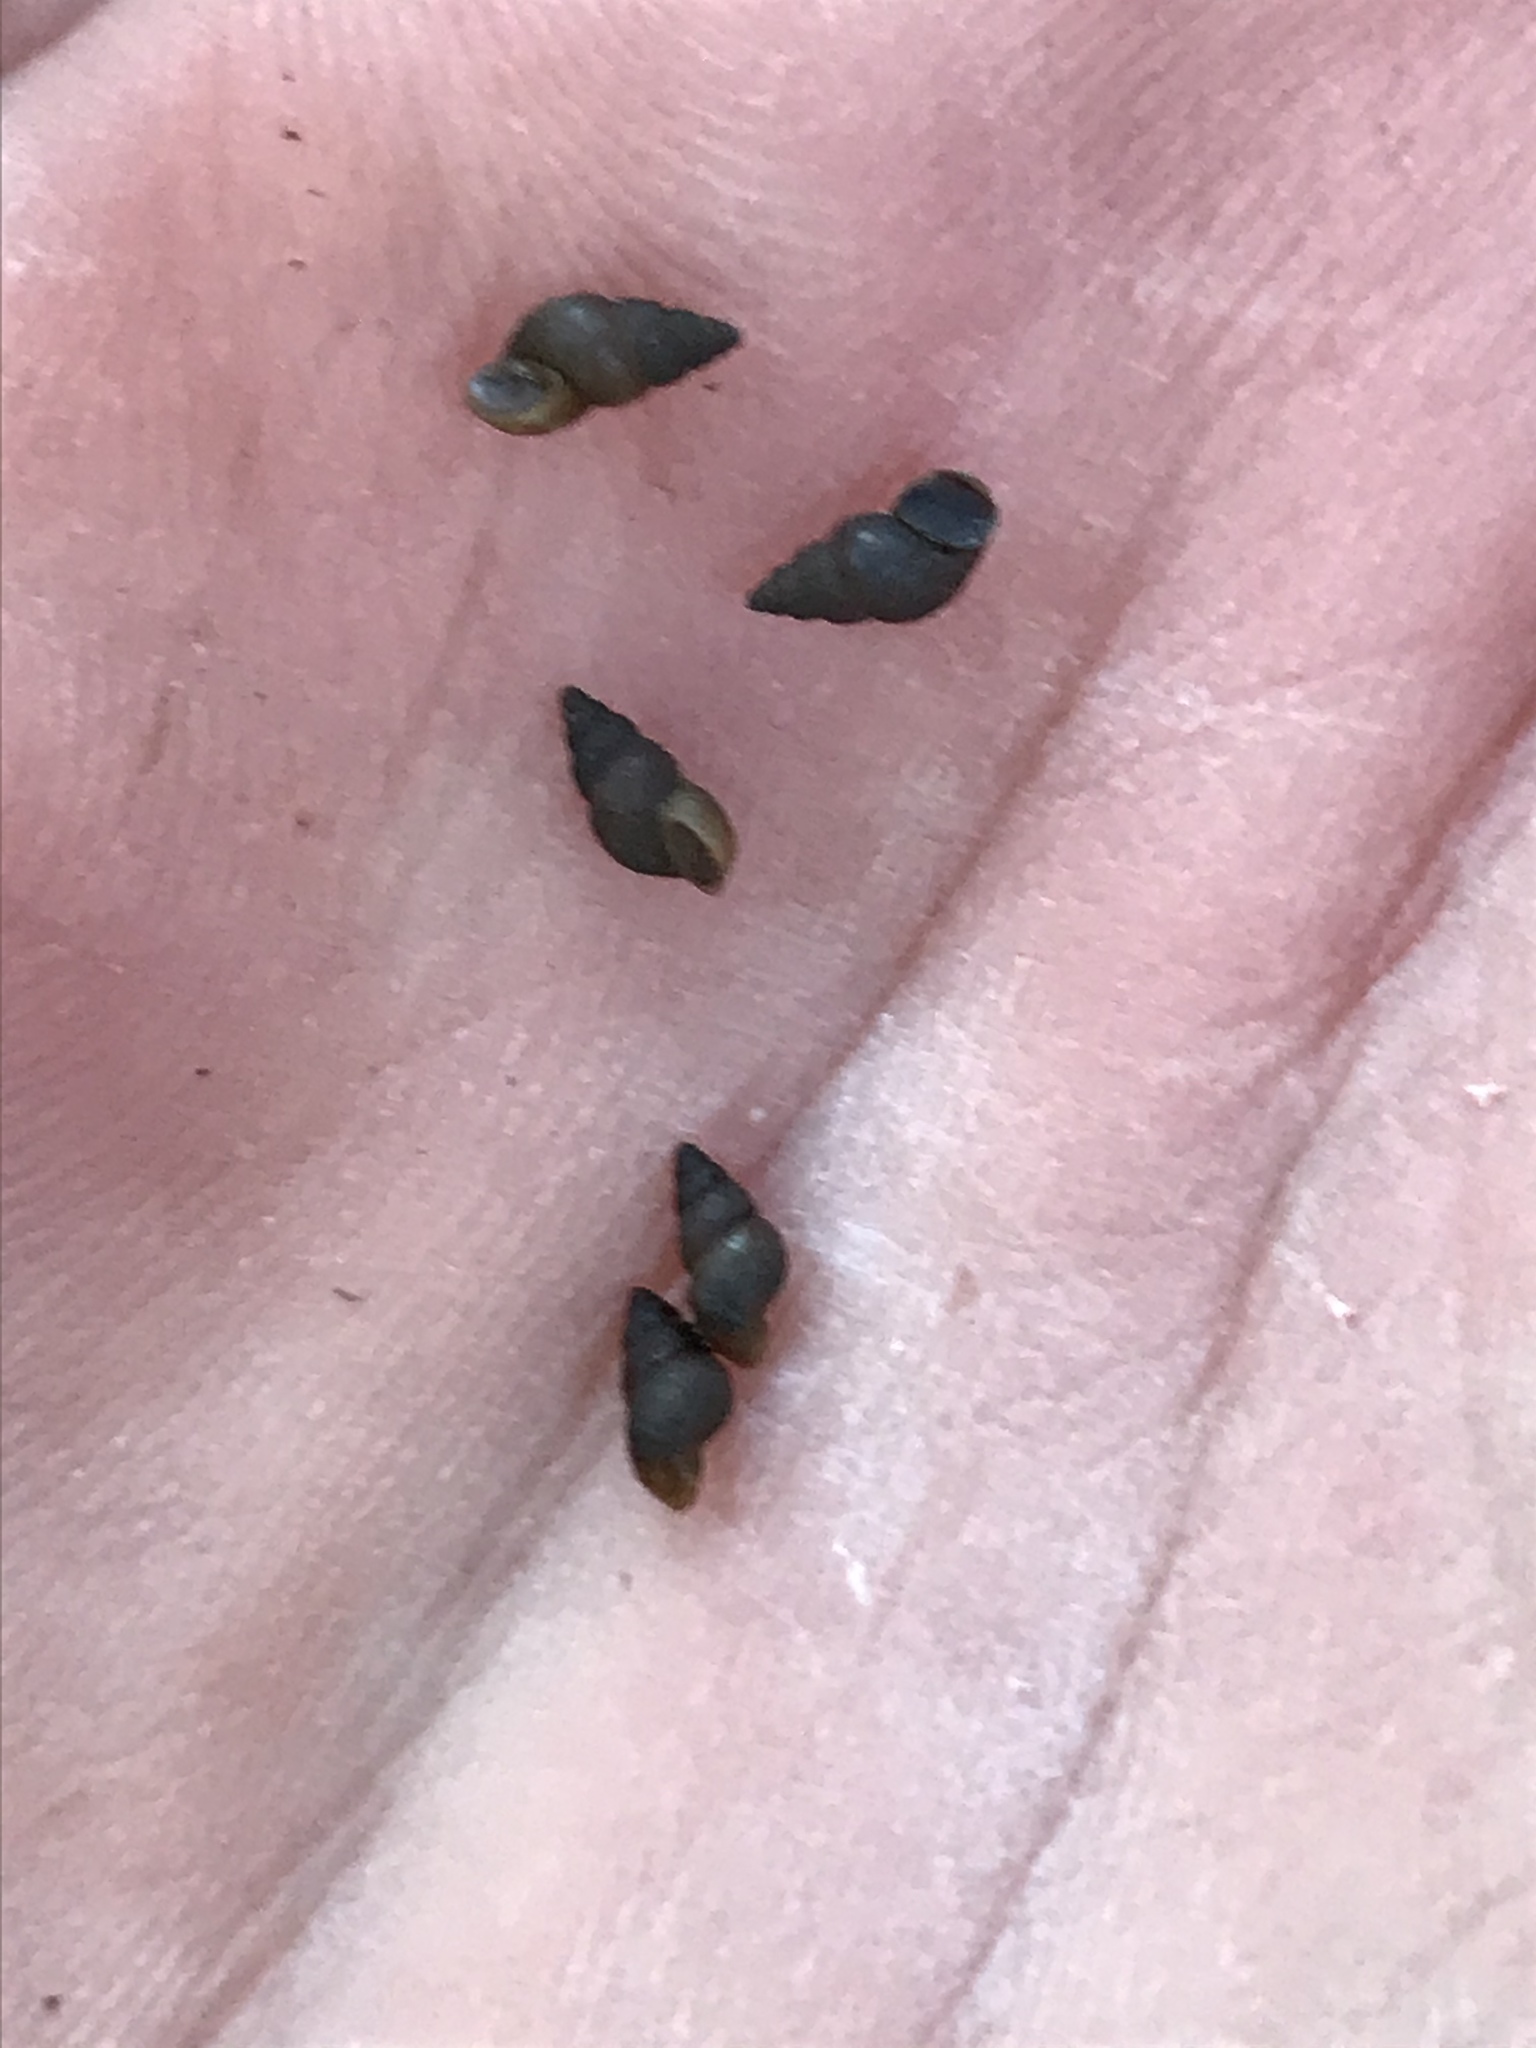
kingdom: Animalia
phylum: Mollusca
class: Gastropoda
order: Littorinimorpha
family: Tateidae
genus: Potamopyrgus
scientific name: Potamopyrgus antipodarum
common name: Jenkins' spire snail
